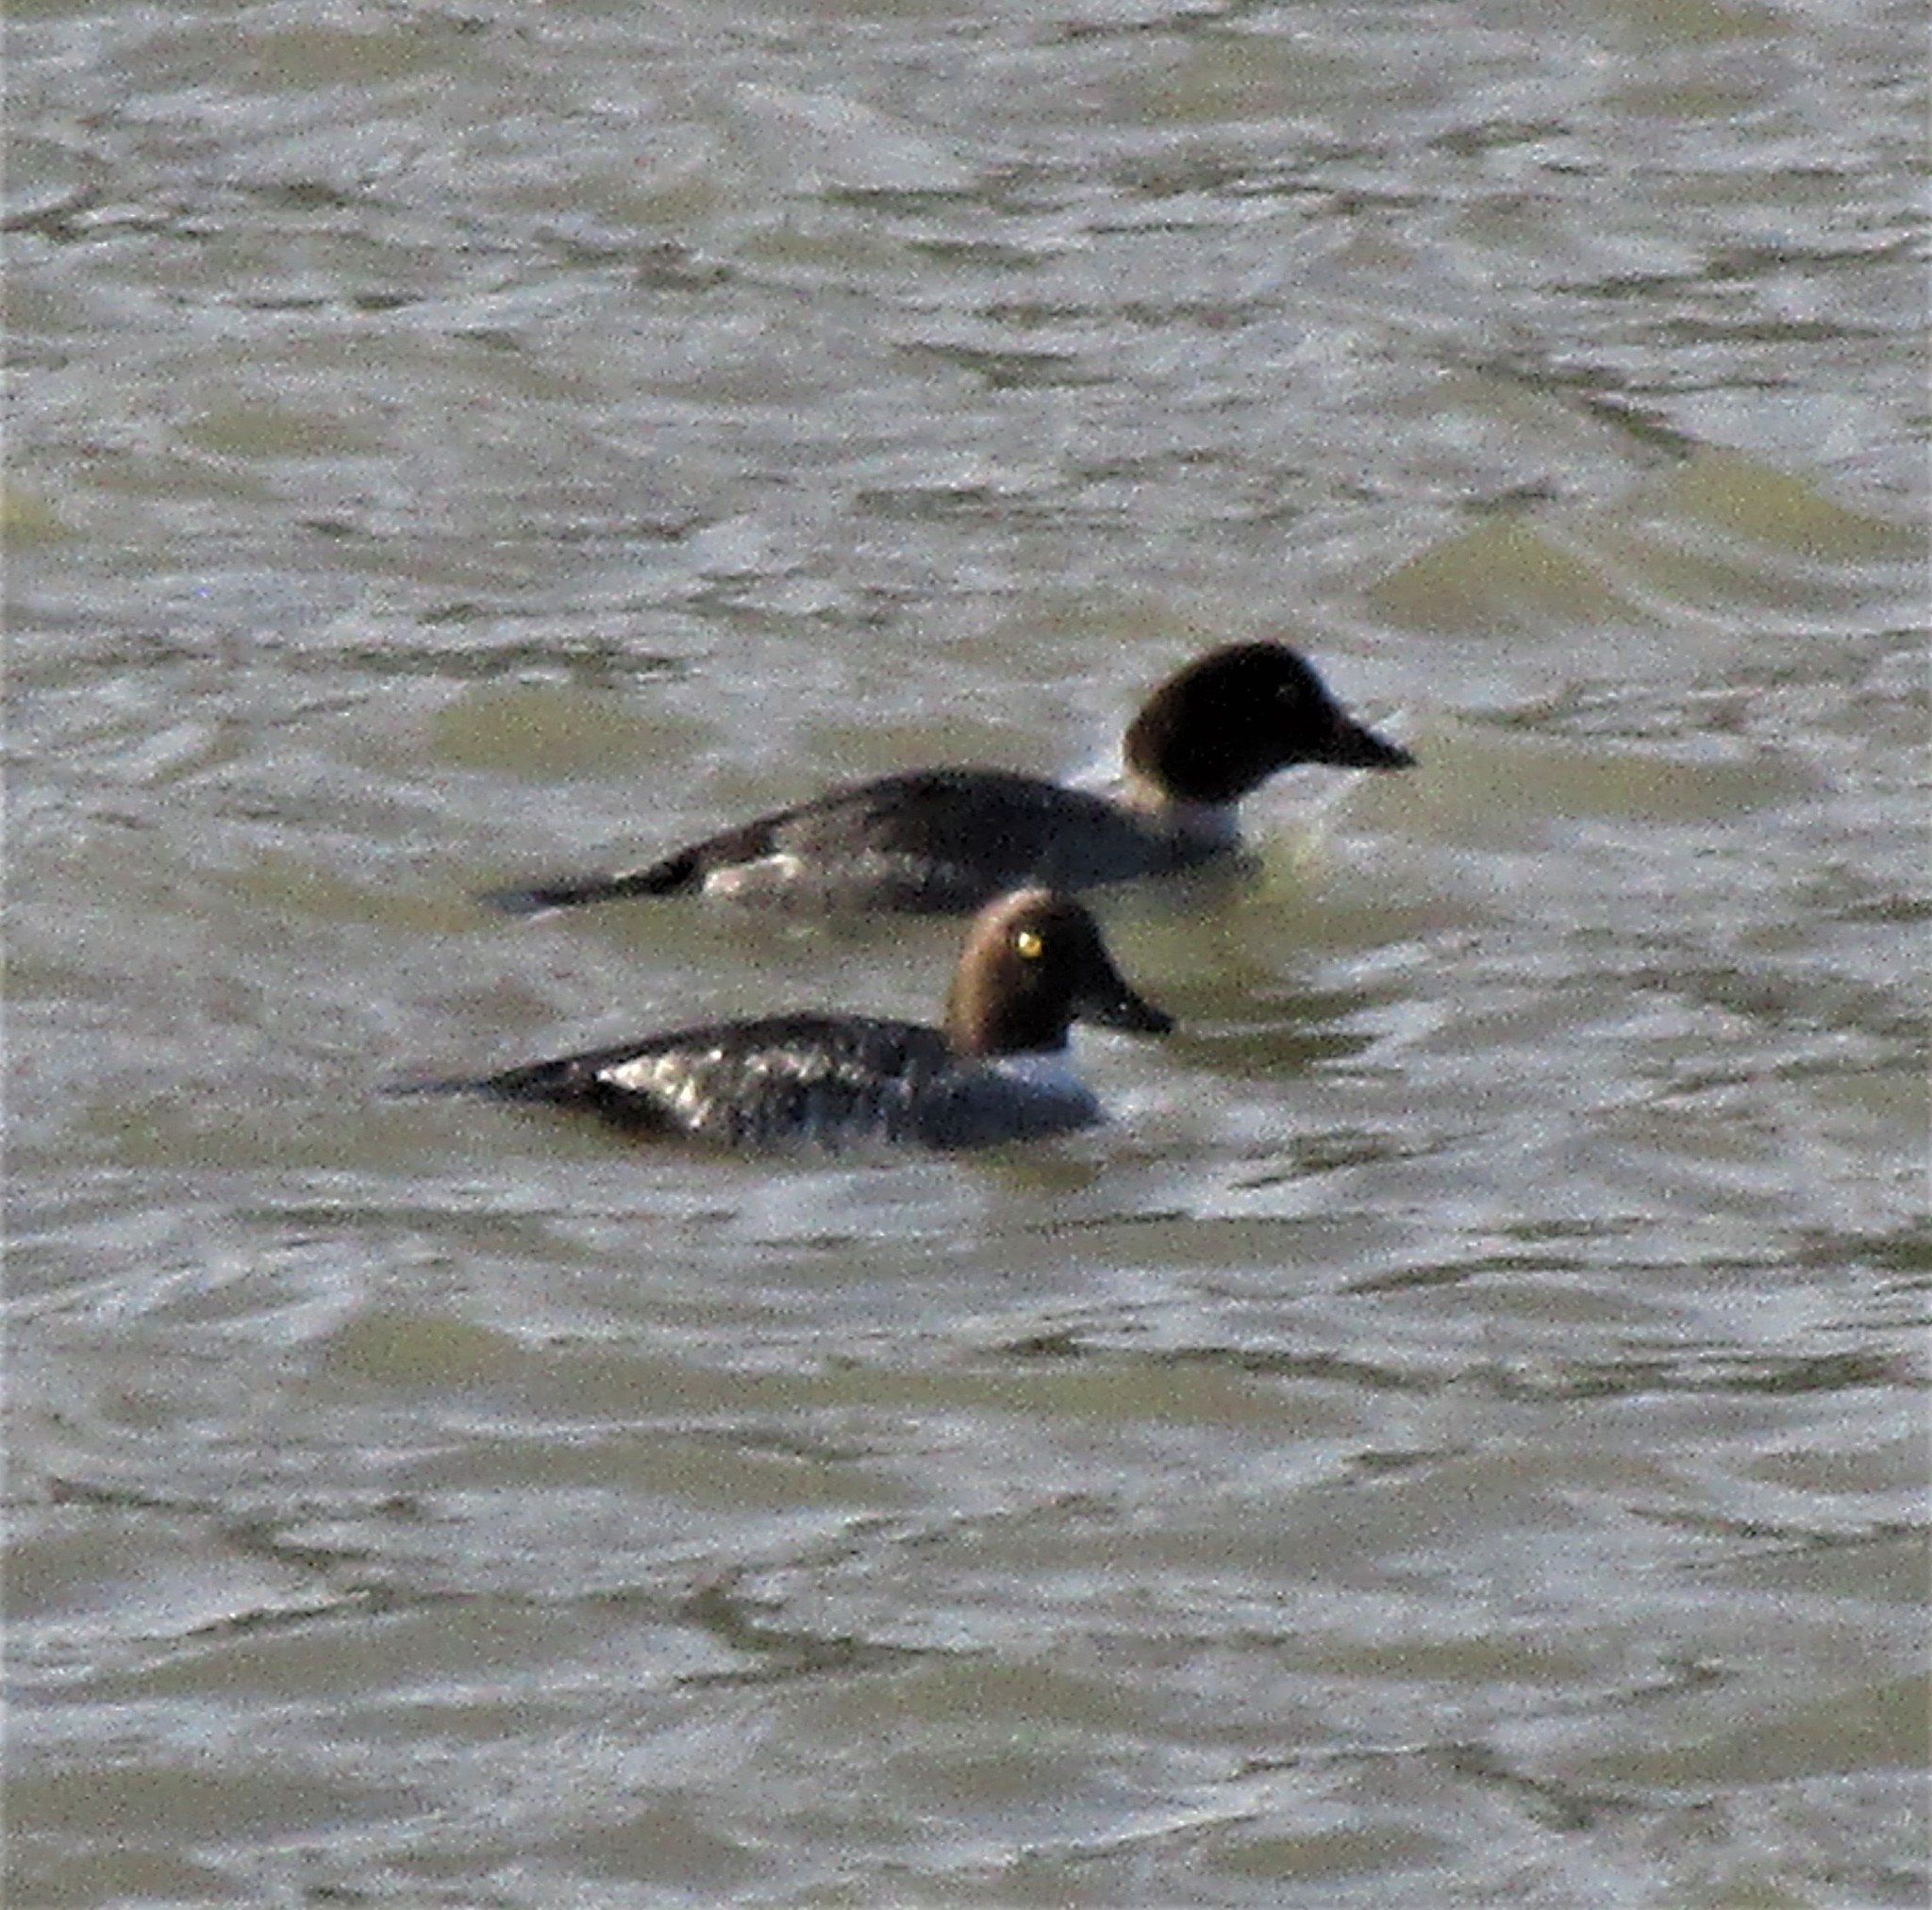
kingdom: Animalia
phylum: Chordata
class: Aves
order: Anseriformes
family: Anatidae
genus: Bucephala
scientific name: Bucephala clangula
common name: Common goldeneye
